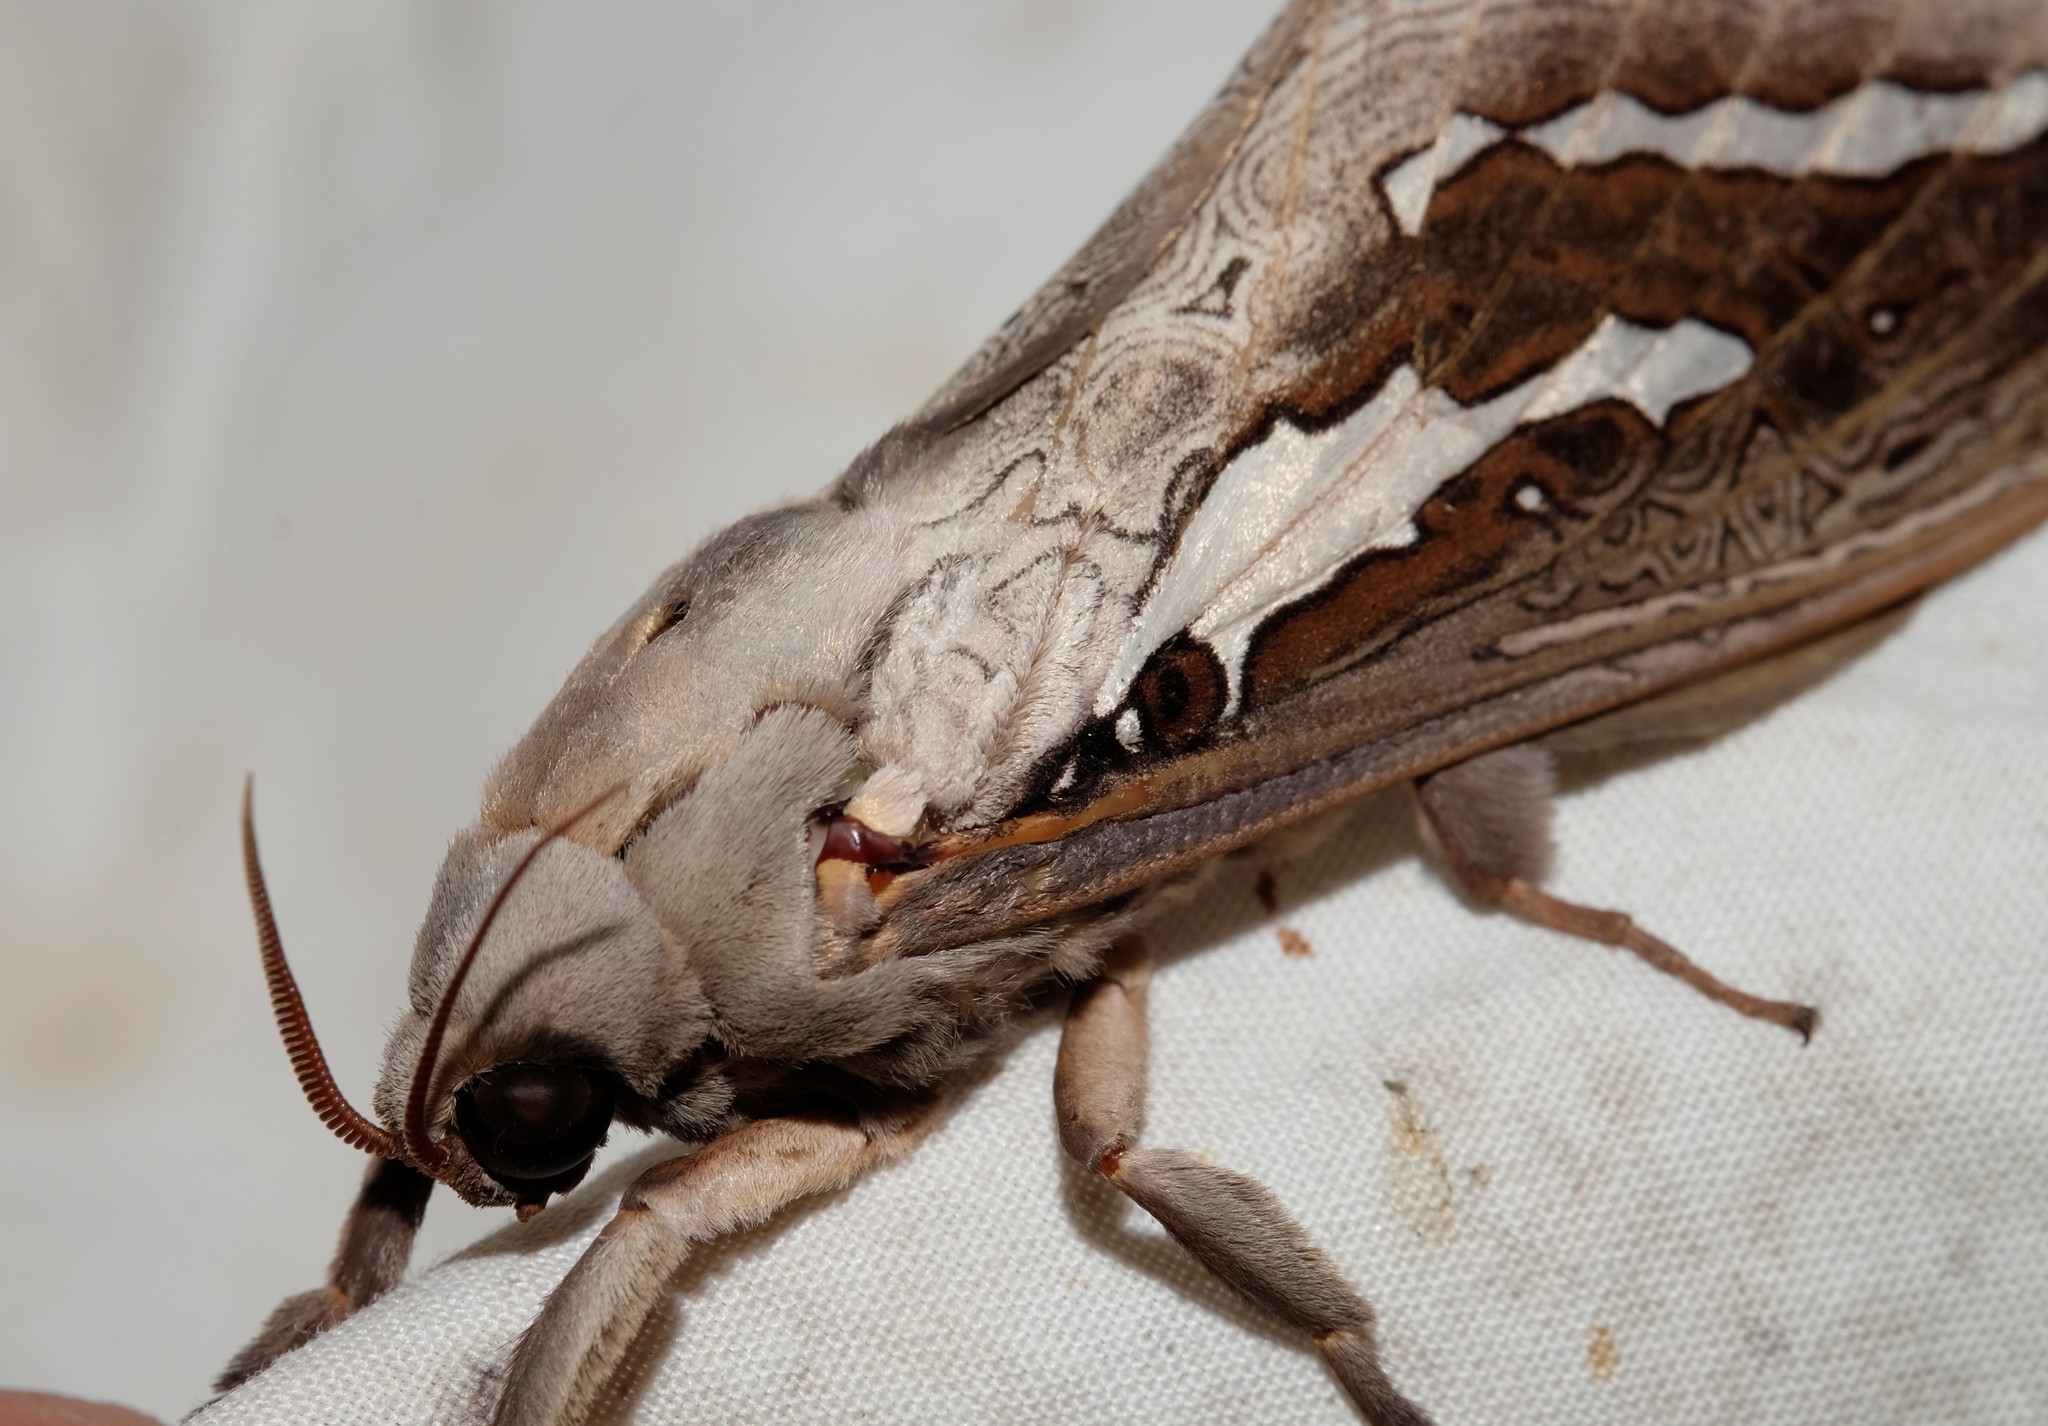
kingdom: Animalia
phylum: Arthropoda
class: Insecta
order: Lepidoptera
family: Hepialidae
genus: Abantiades
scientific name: Abantiades labyrinthicus
